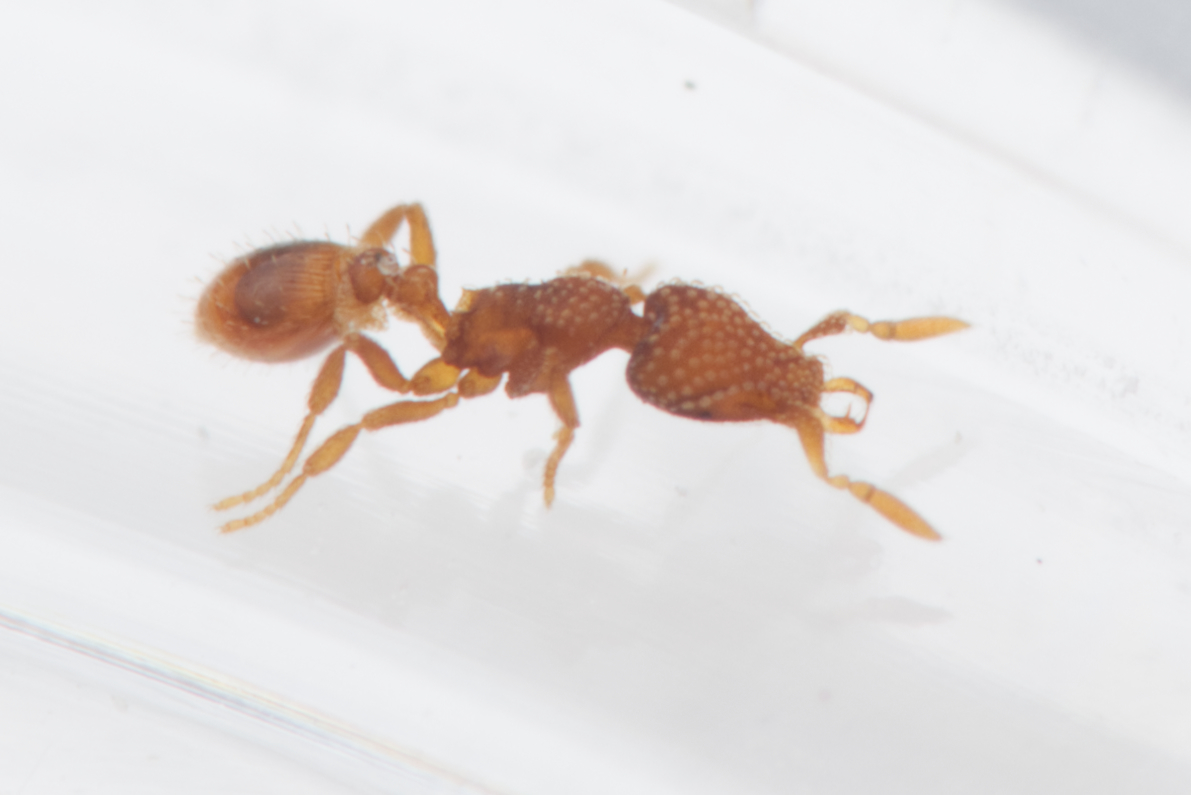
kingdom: Animalia
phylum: Arthropoda
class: Insecta
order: Hymenoptera
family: Formicidae
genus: Pyramica
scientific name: Pyramica emmae
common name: Ant
